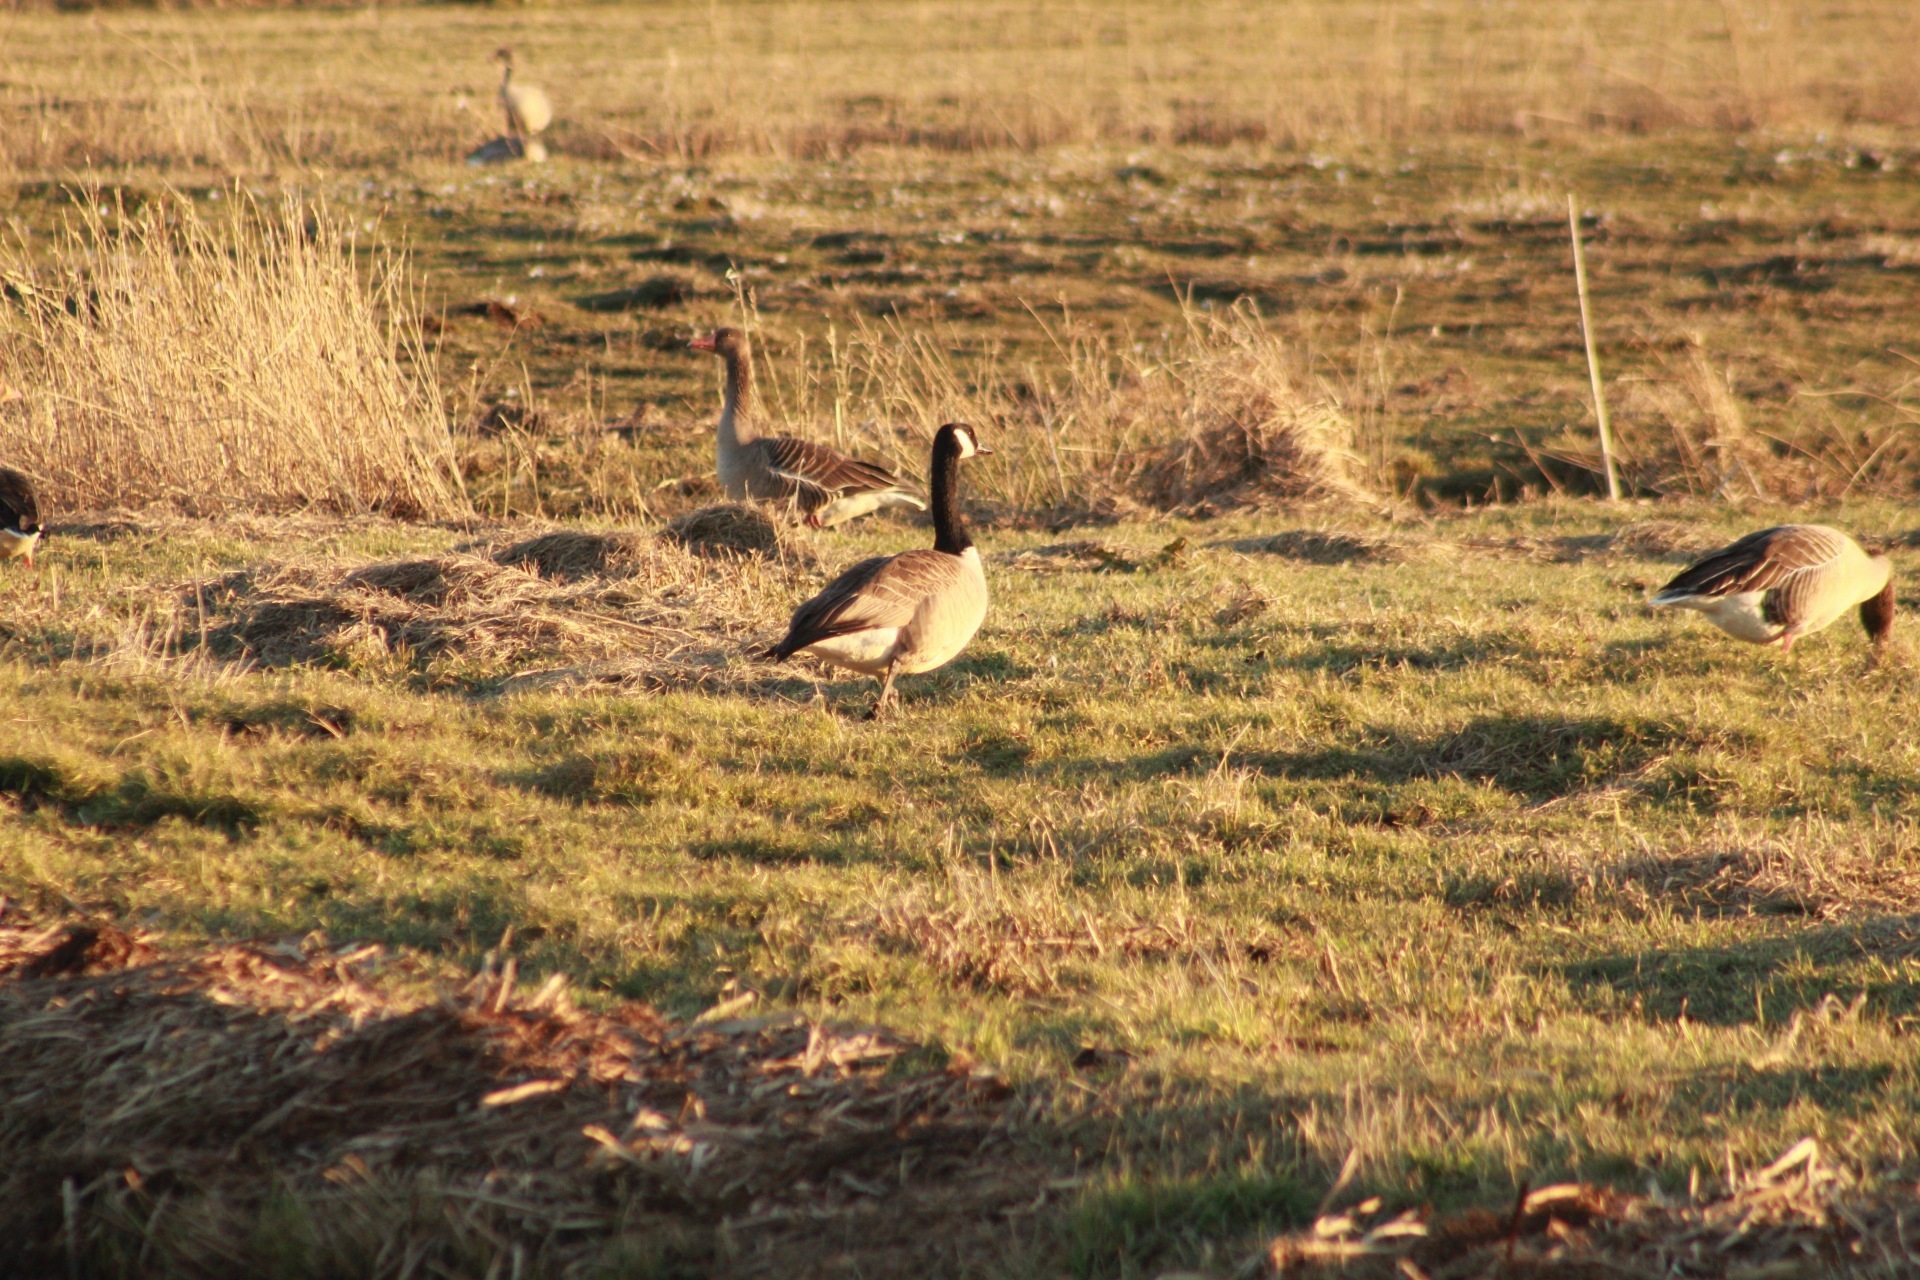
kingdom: Animalia
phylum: Chordata
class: Aves
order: Anseriformes
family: Anatidae
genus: Branta
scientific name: Branta canadensis
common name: Canada goose
